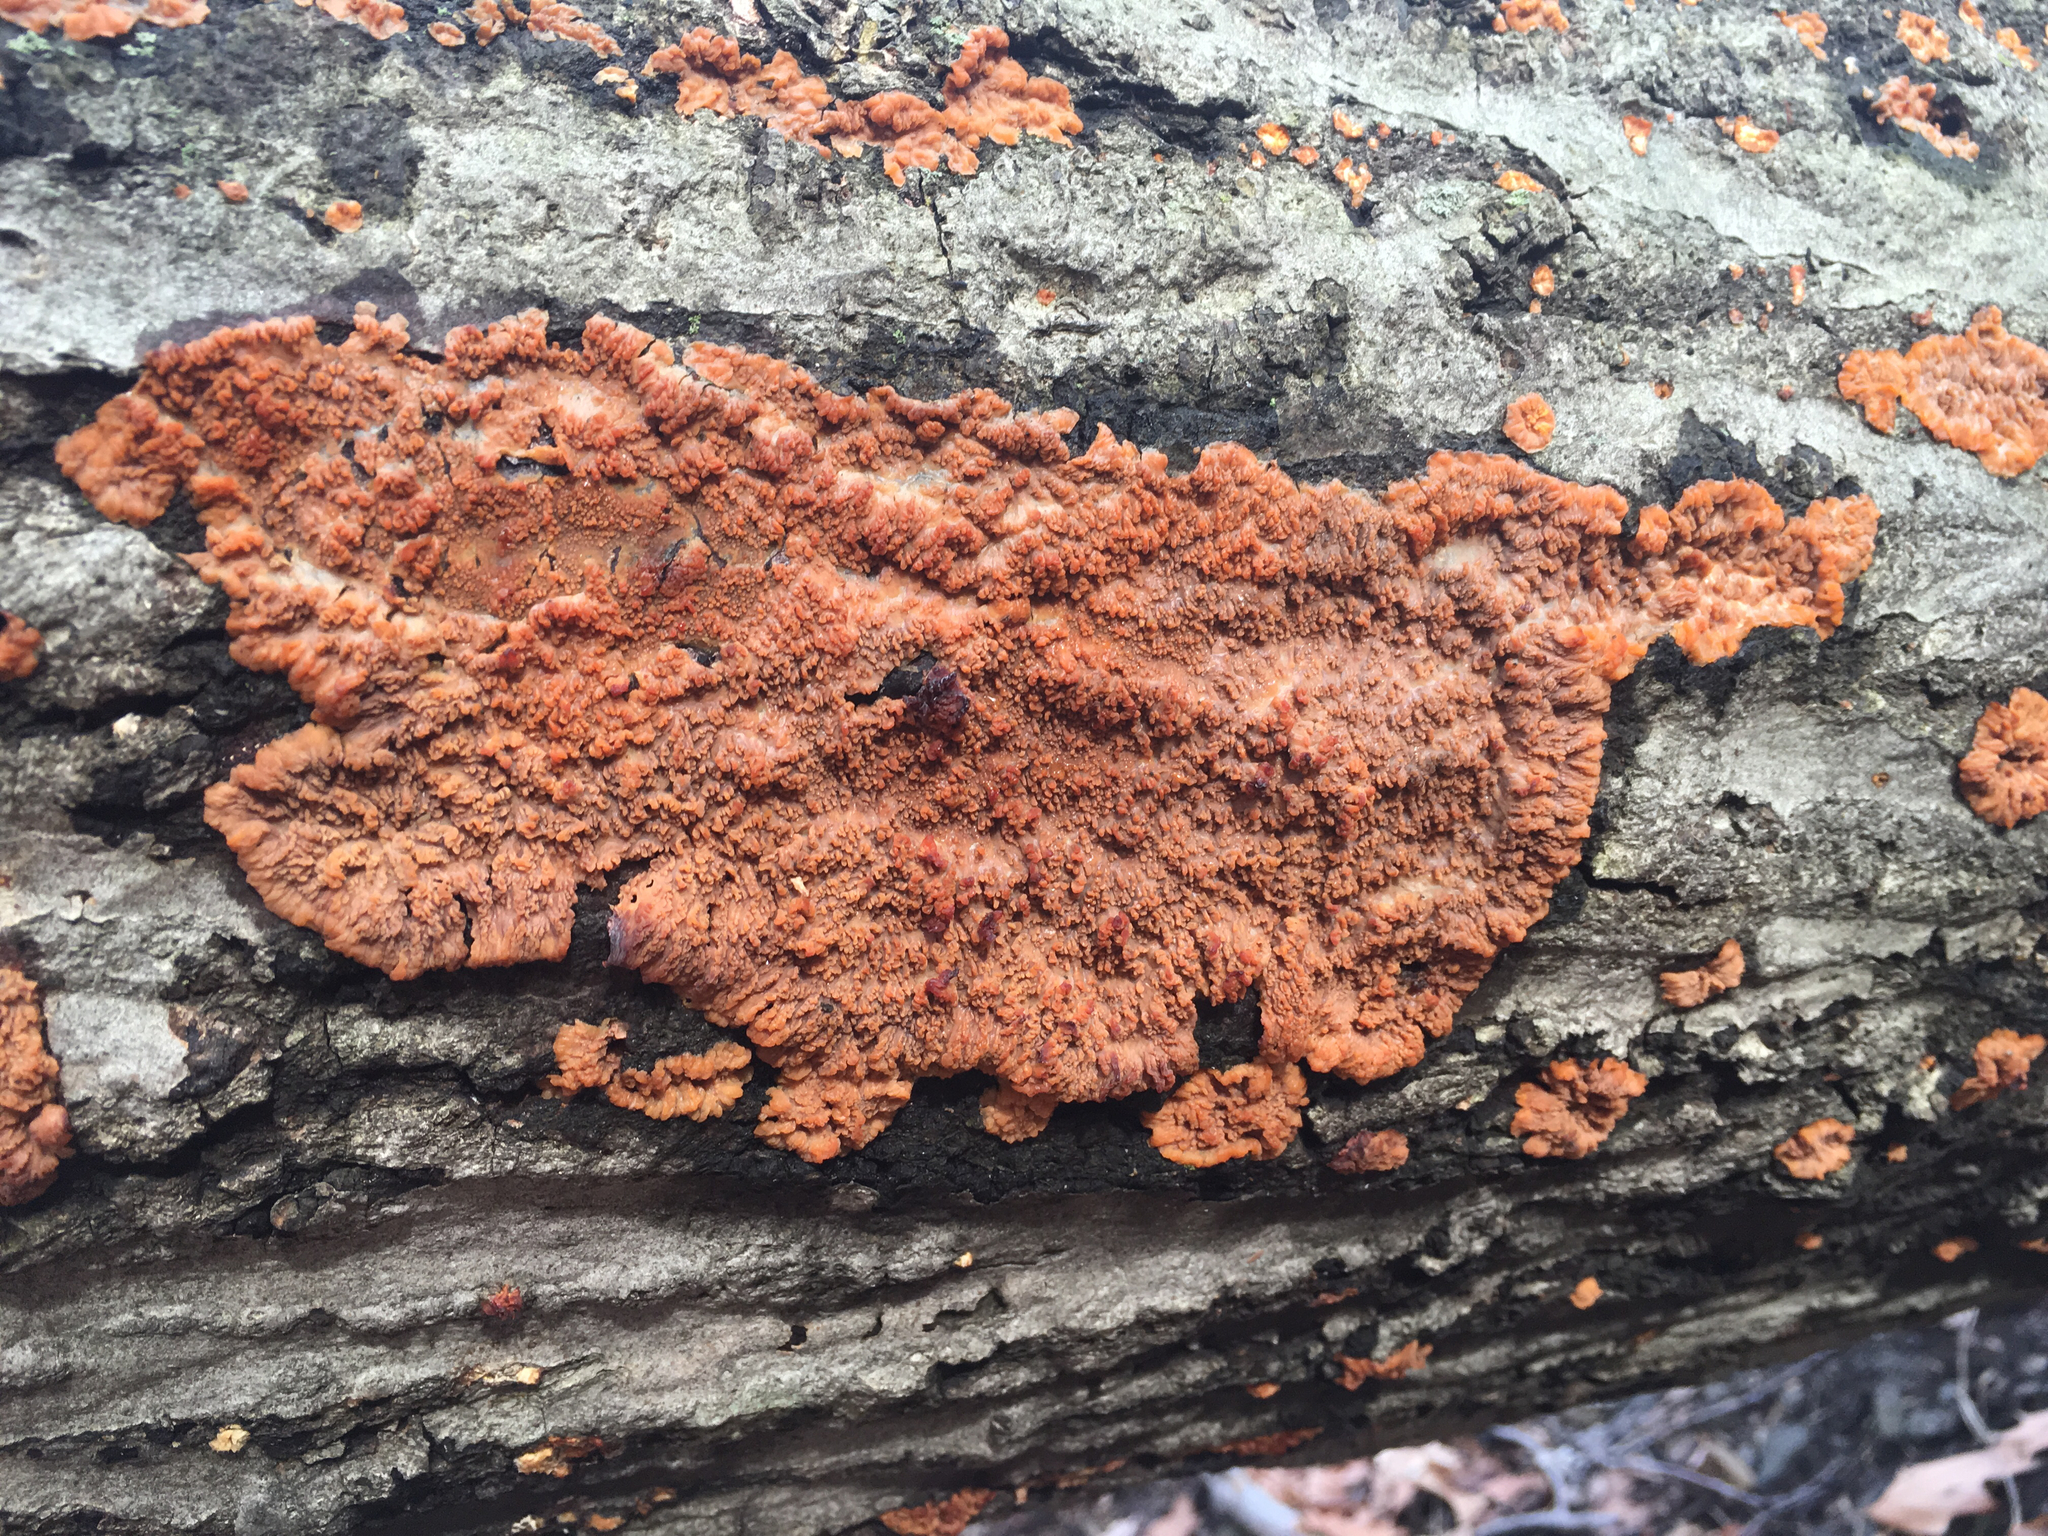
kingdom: Fungi
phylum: Basidiomycota
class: Agaricomycetes
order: Polyporales
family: Meruliaceae
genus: Phlebia
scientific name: Phlebia radiata
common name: Wrinkled crust
